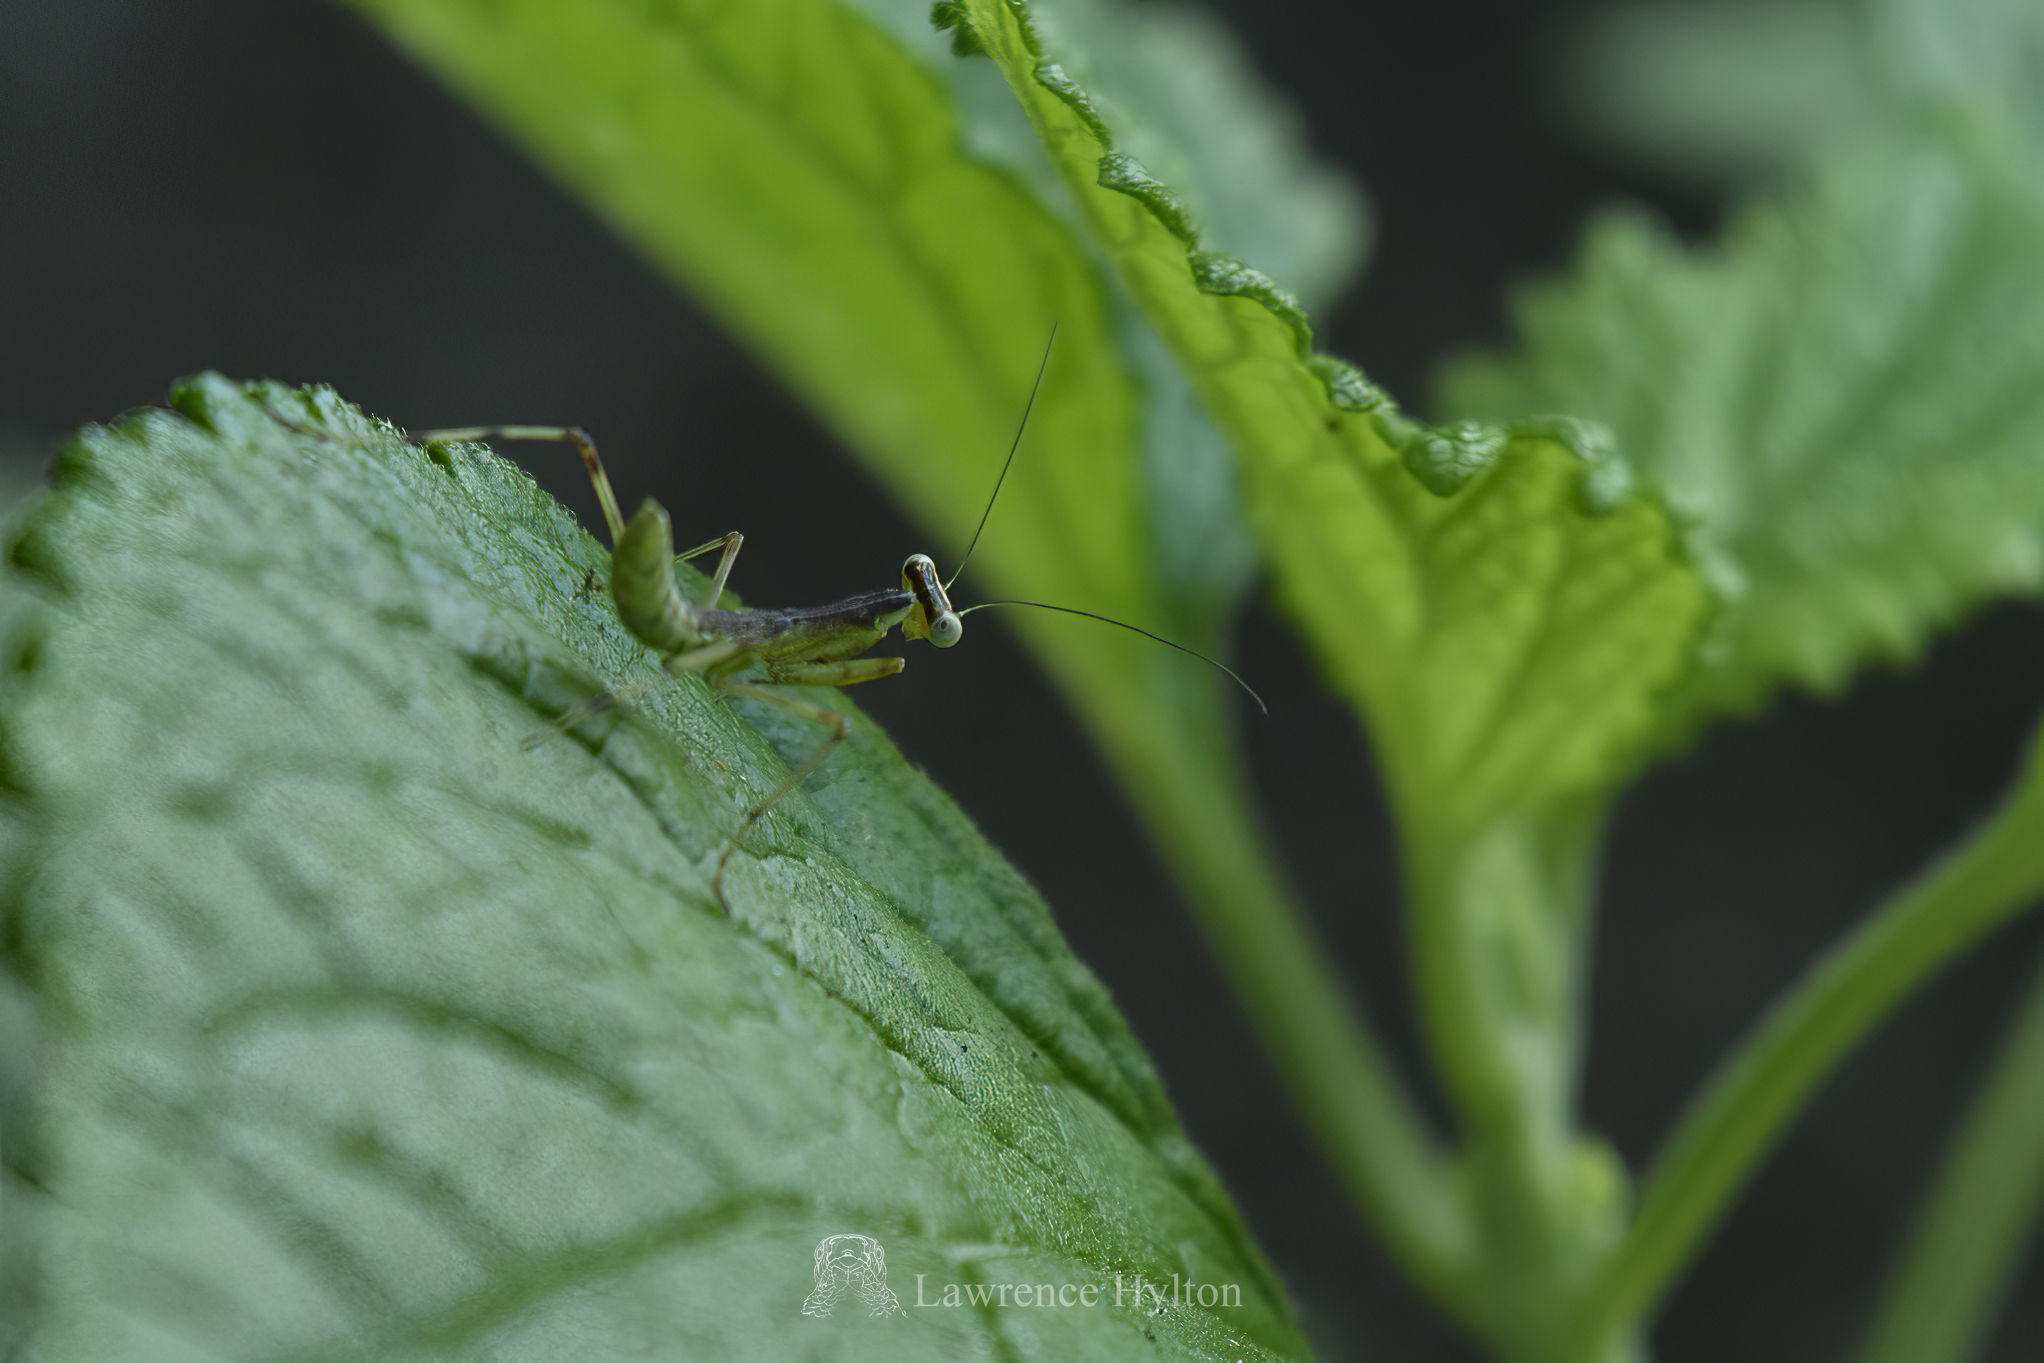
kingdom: Animalia
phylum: Arthropoda
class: Insecta
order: Mantodea
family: Mantidae
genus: Hierodula
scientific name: Hierodula patellifera
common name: Asian mantis
